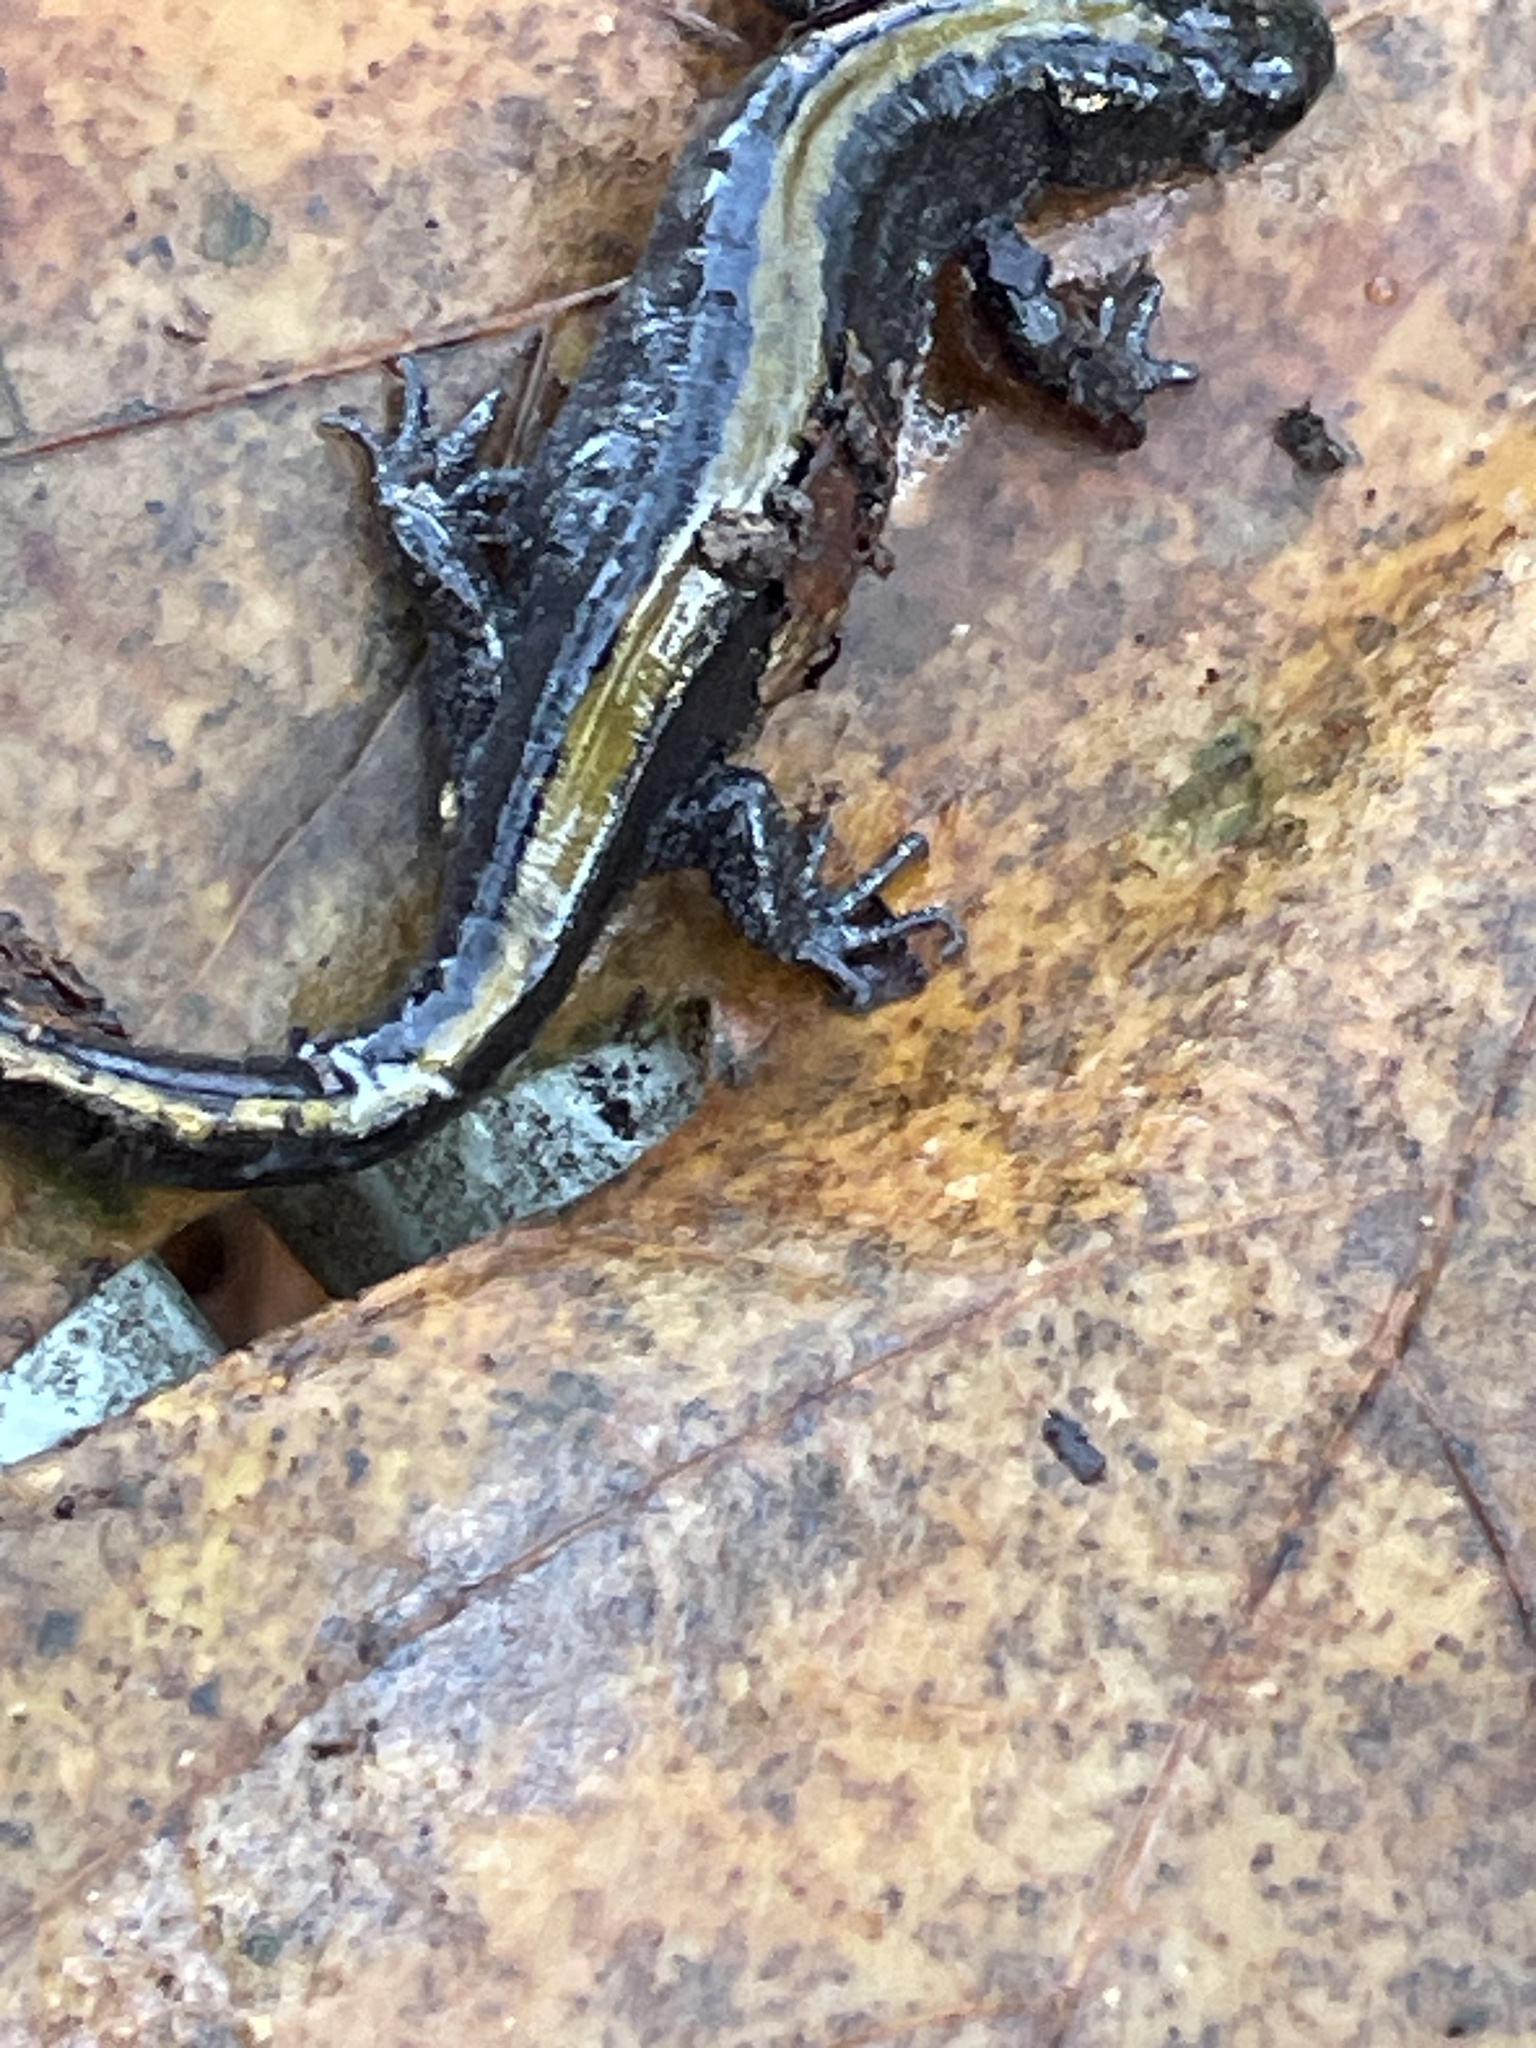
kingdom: Animalia
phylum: Chordata
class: Amphibia
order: Caudata
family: Ambystomatidae
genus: Ambystoma
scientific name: Ambystoma macrodactylum
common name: Long-toed salamander
